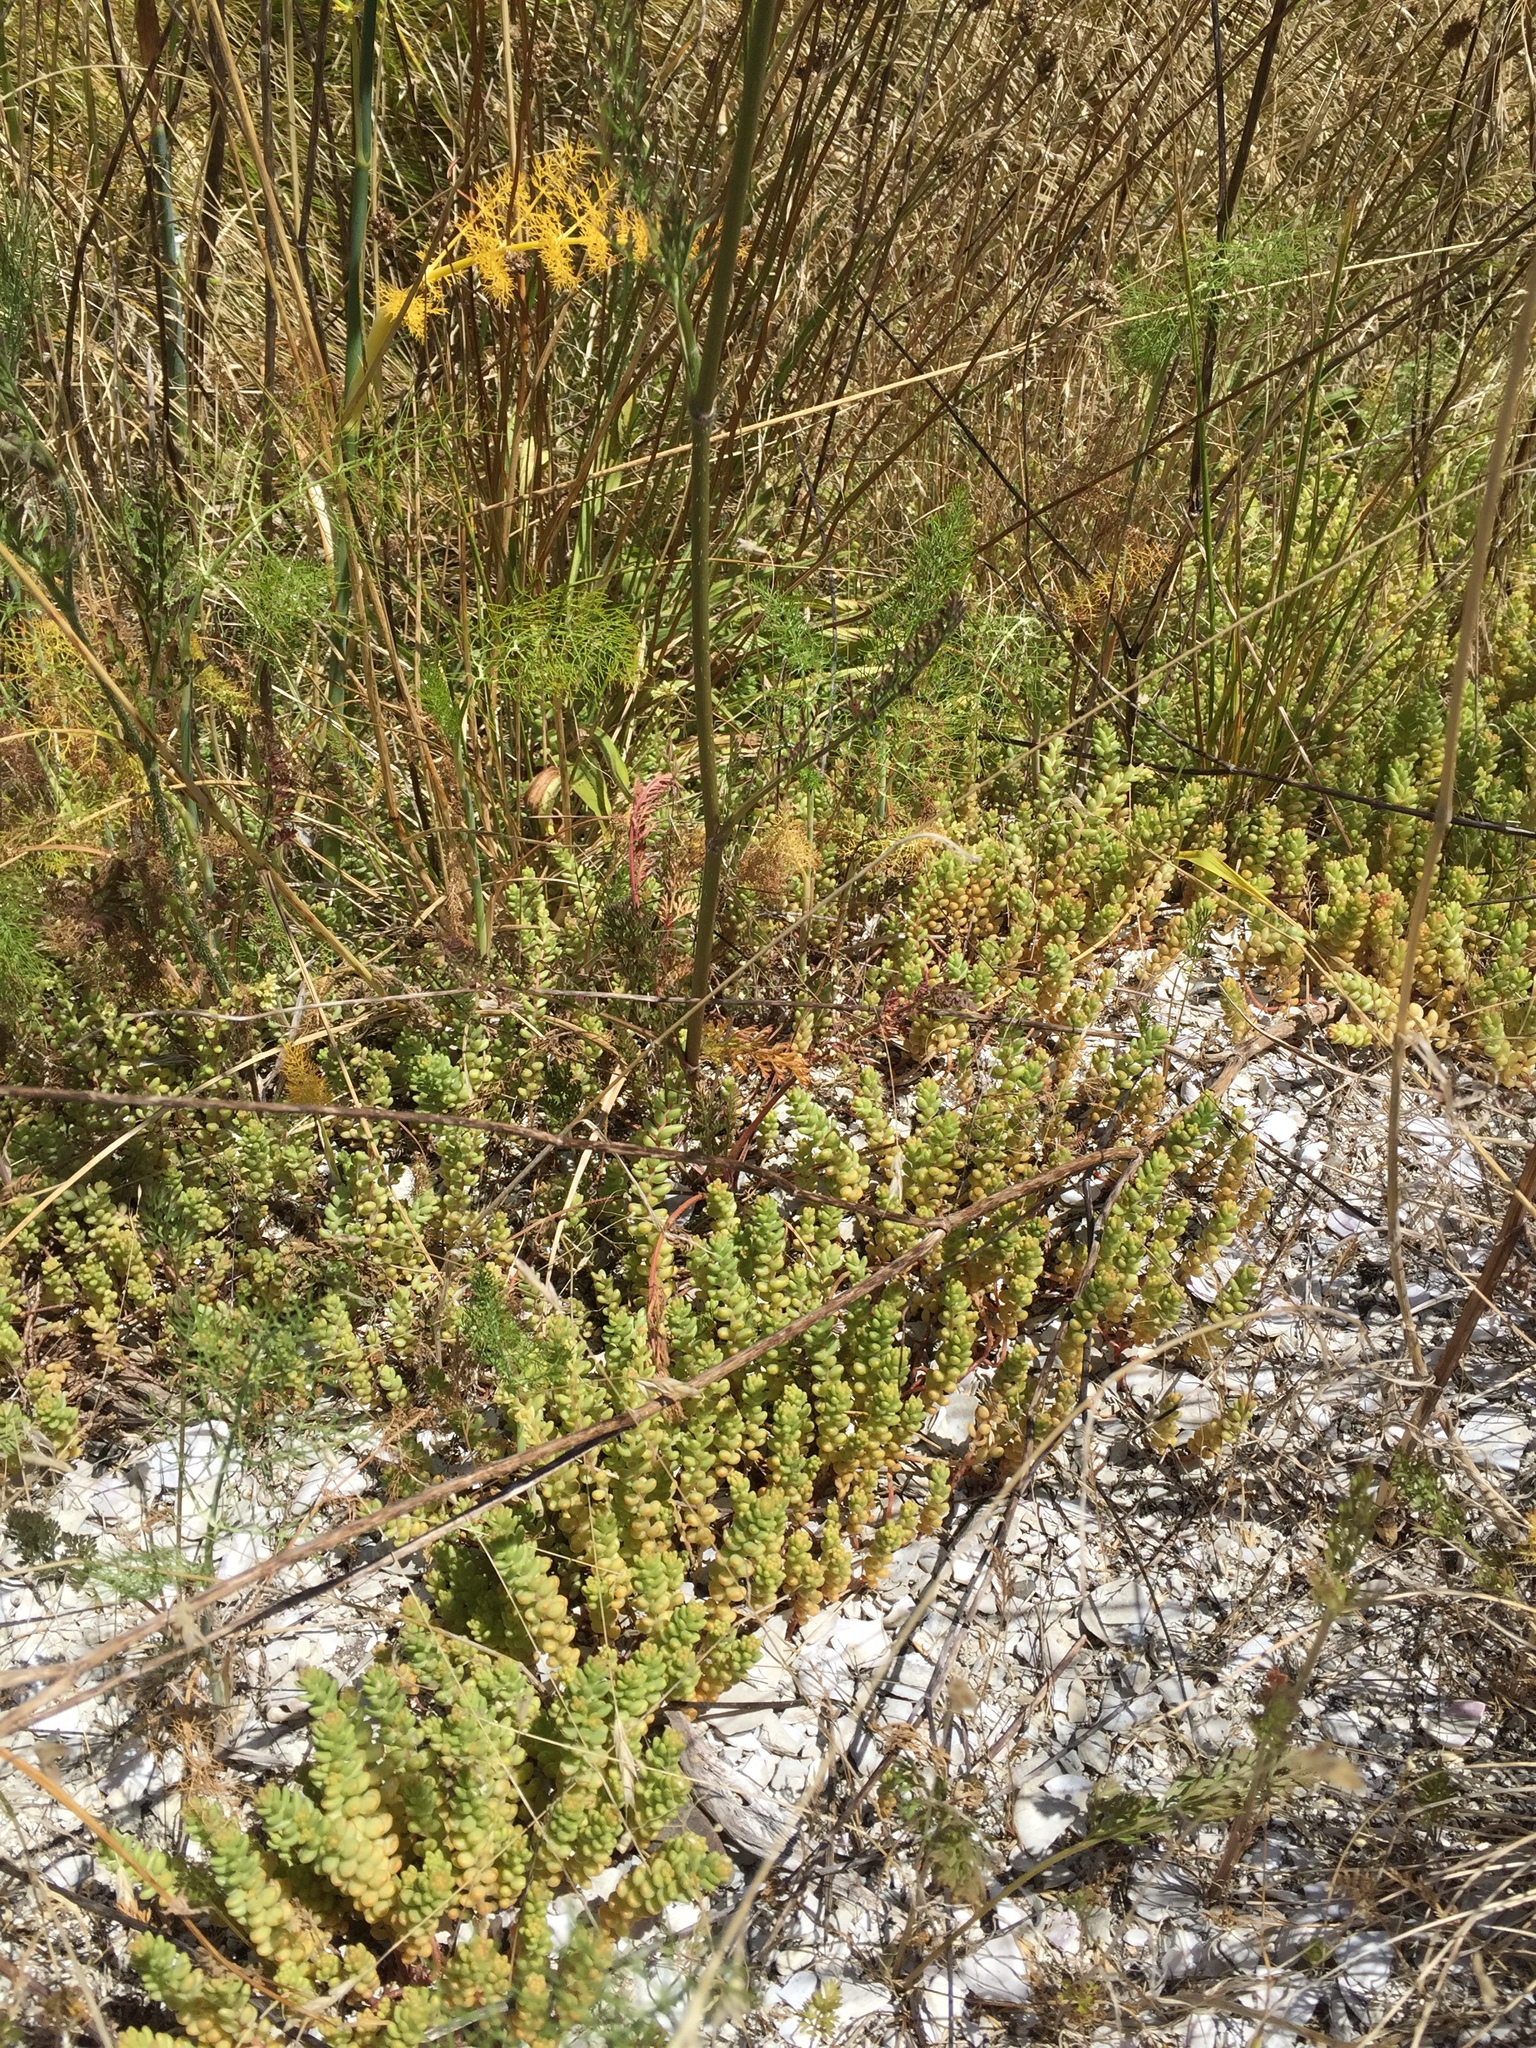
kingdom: Plantae
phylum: Tracheophyta
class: Magnoliopsida
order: Saxifragales
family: Crassulaceae
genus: Sedum
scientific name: Sedum album
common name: White stonecrop
